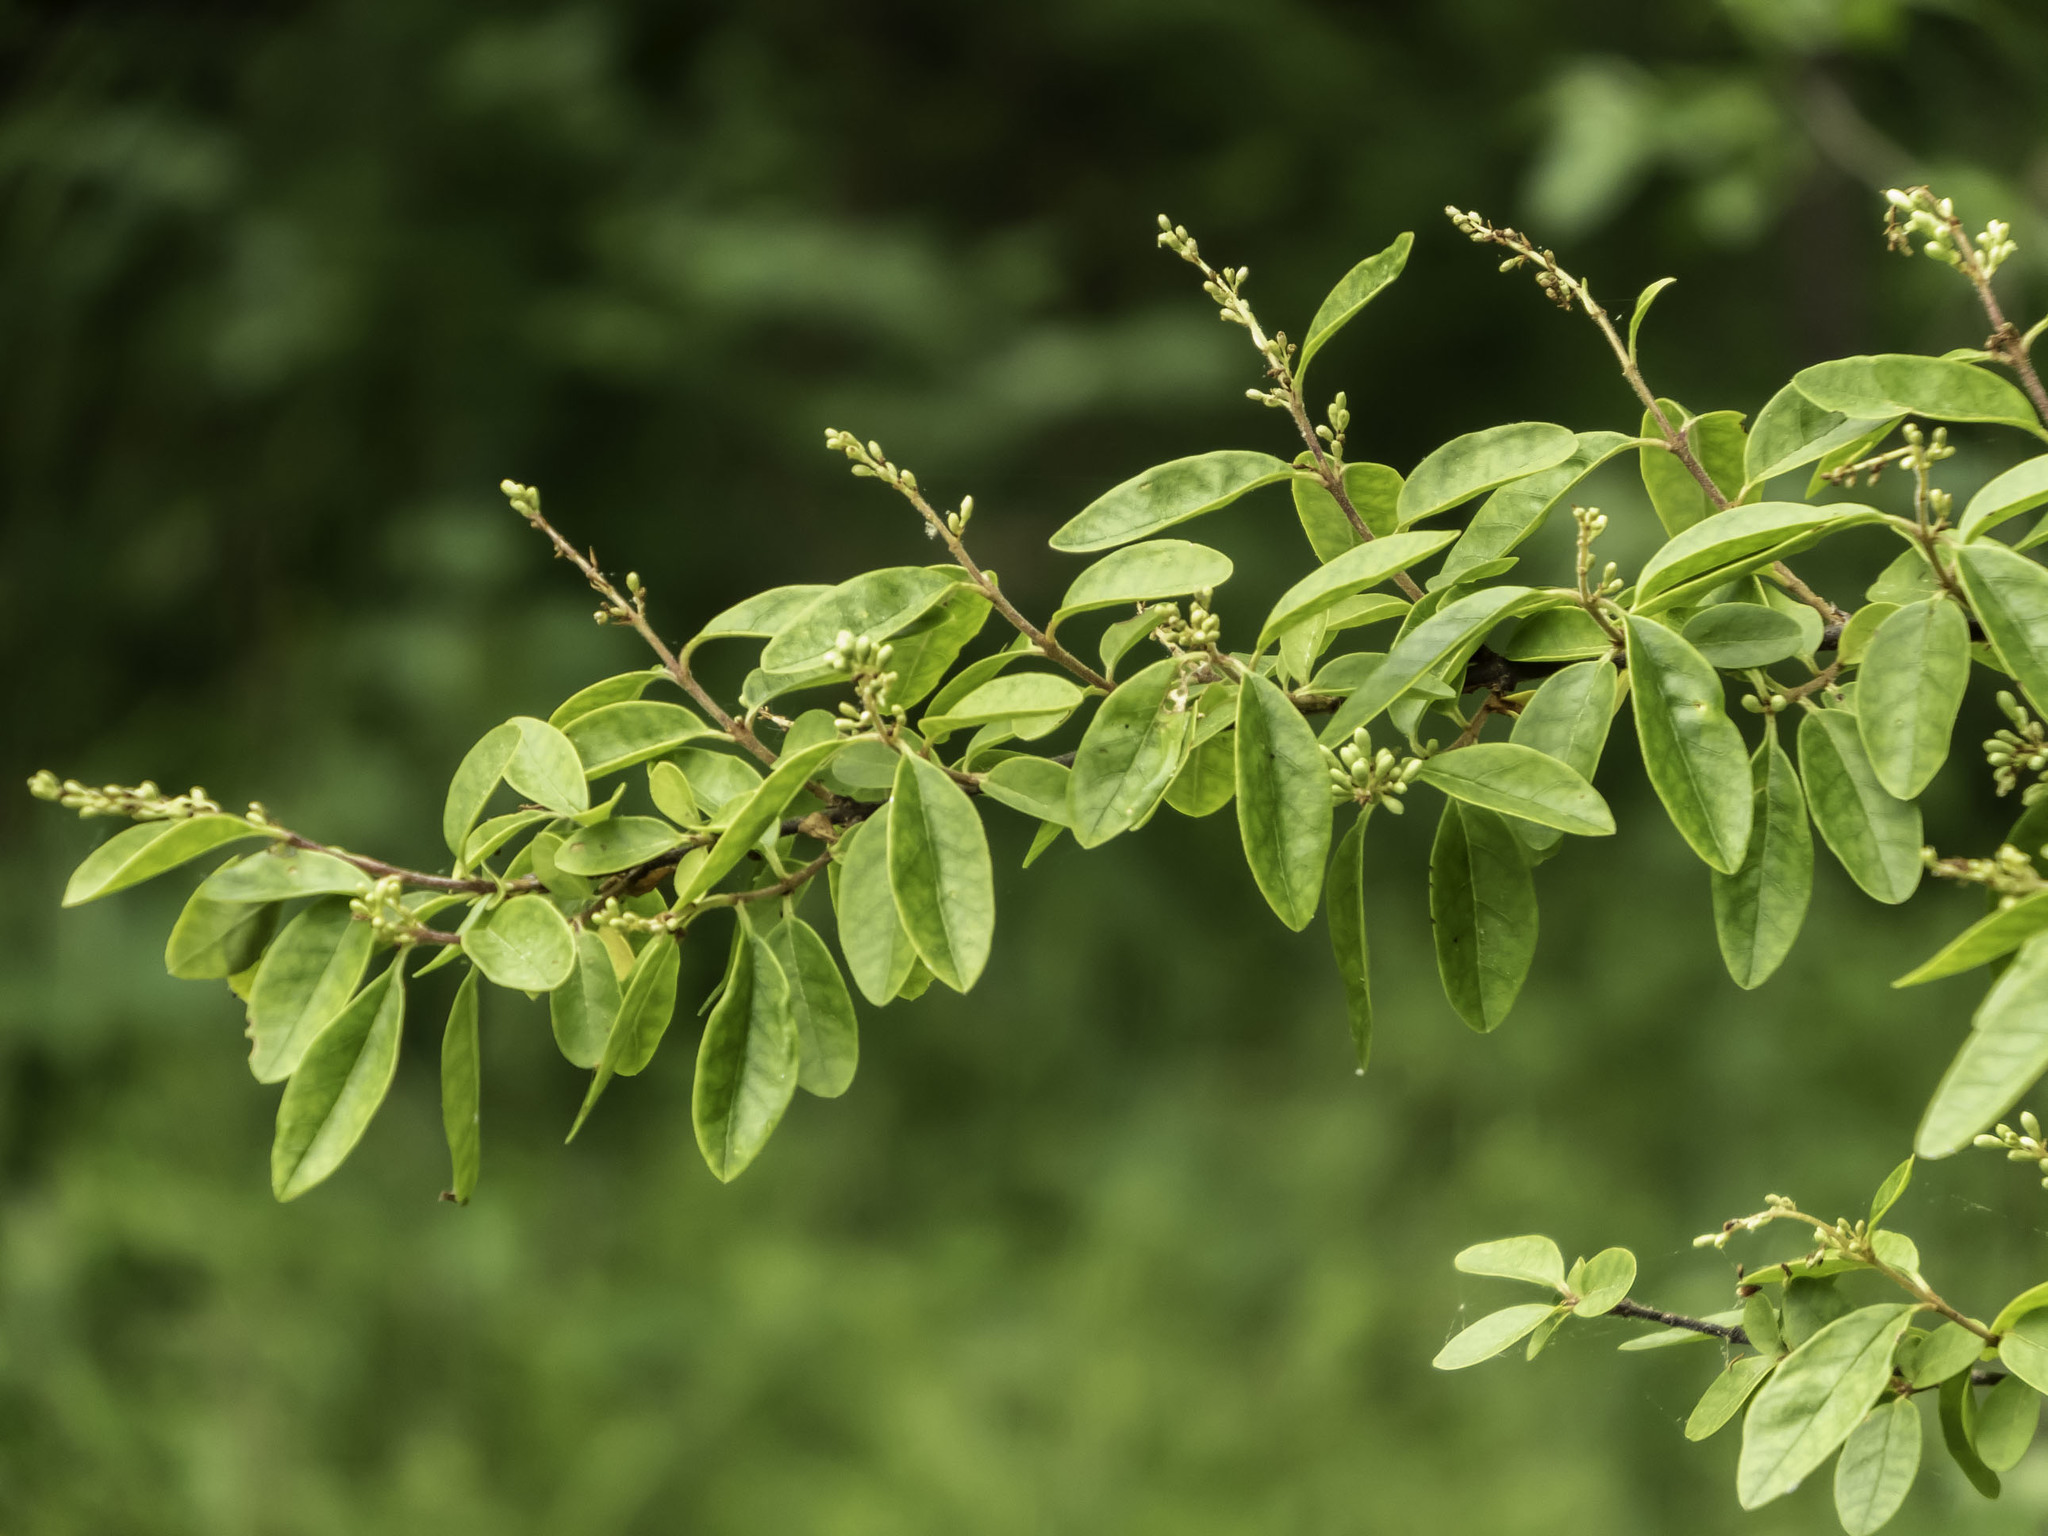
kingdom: Plantae
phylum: Tracheophyta
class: Magnoliopsida
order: Lamiales
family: Oleaceae
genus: Ligustrum
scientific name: Ligustrum sinense
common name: Chinese privet
